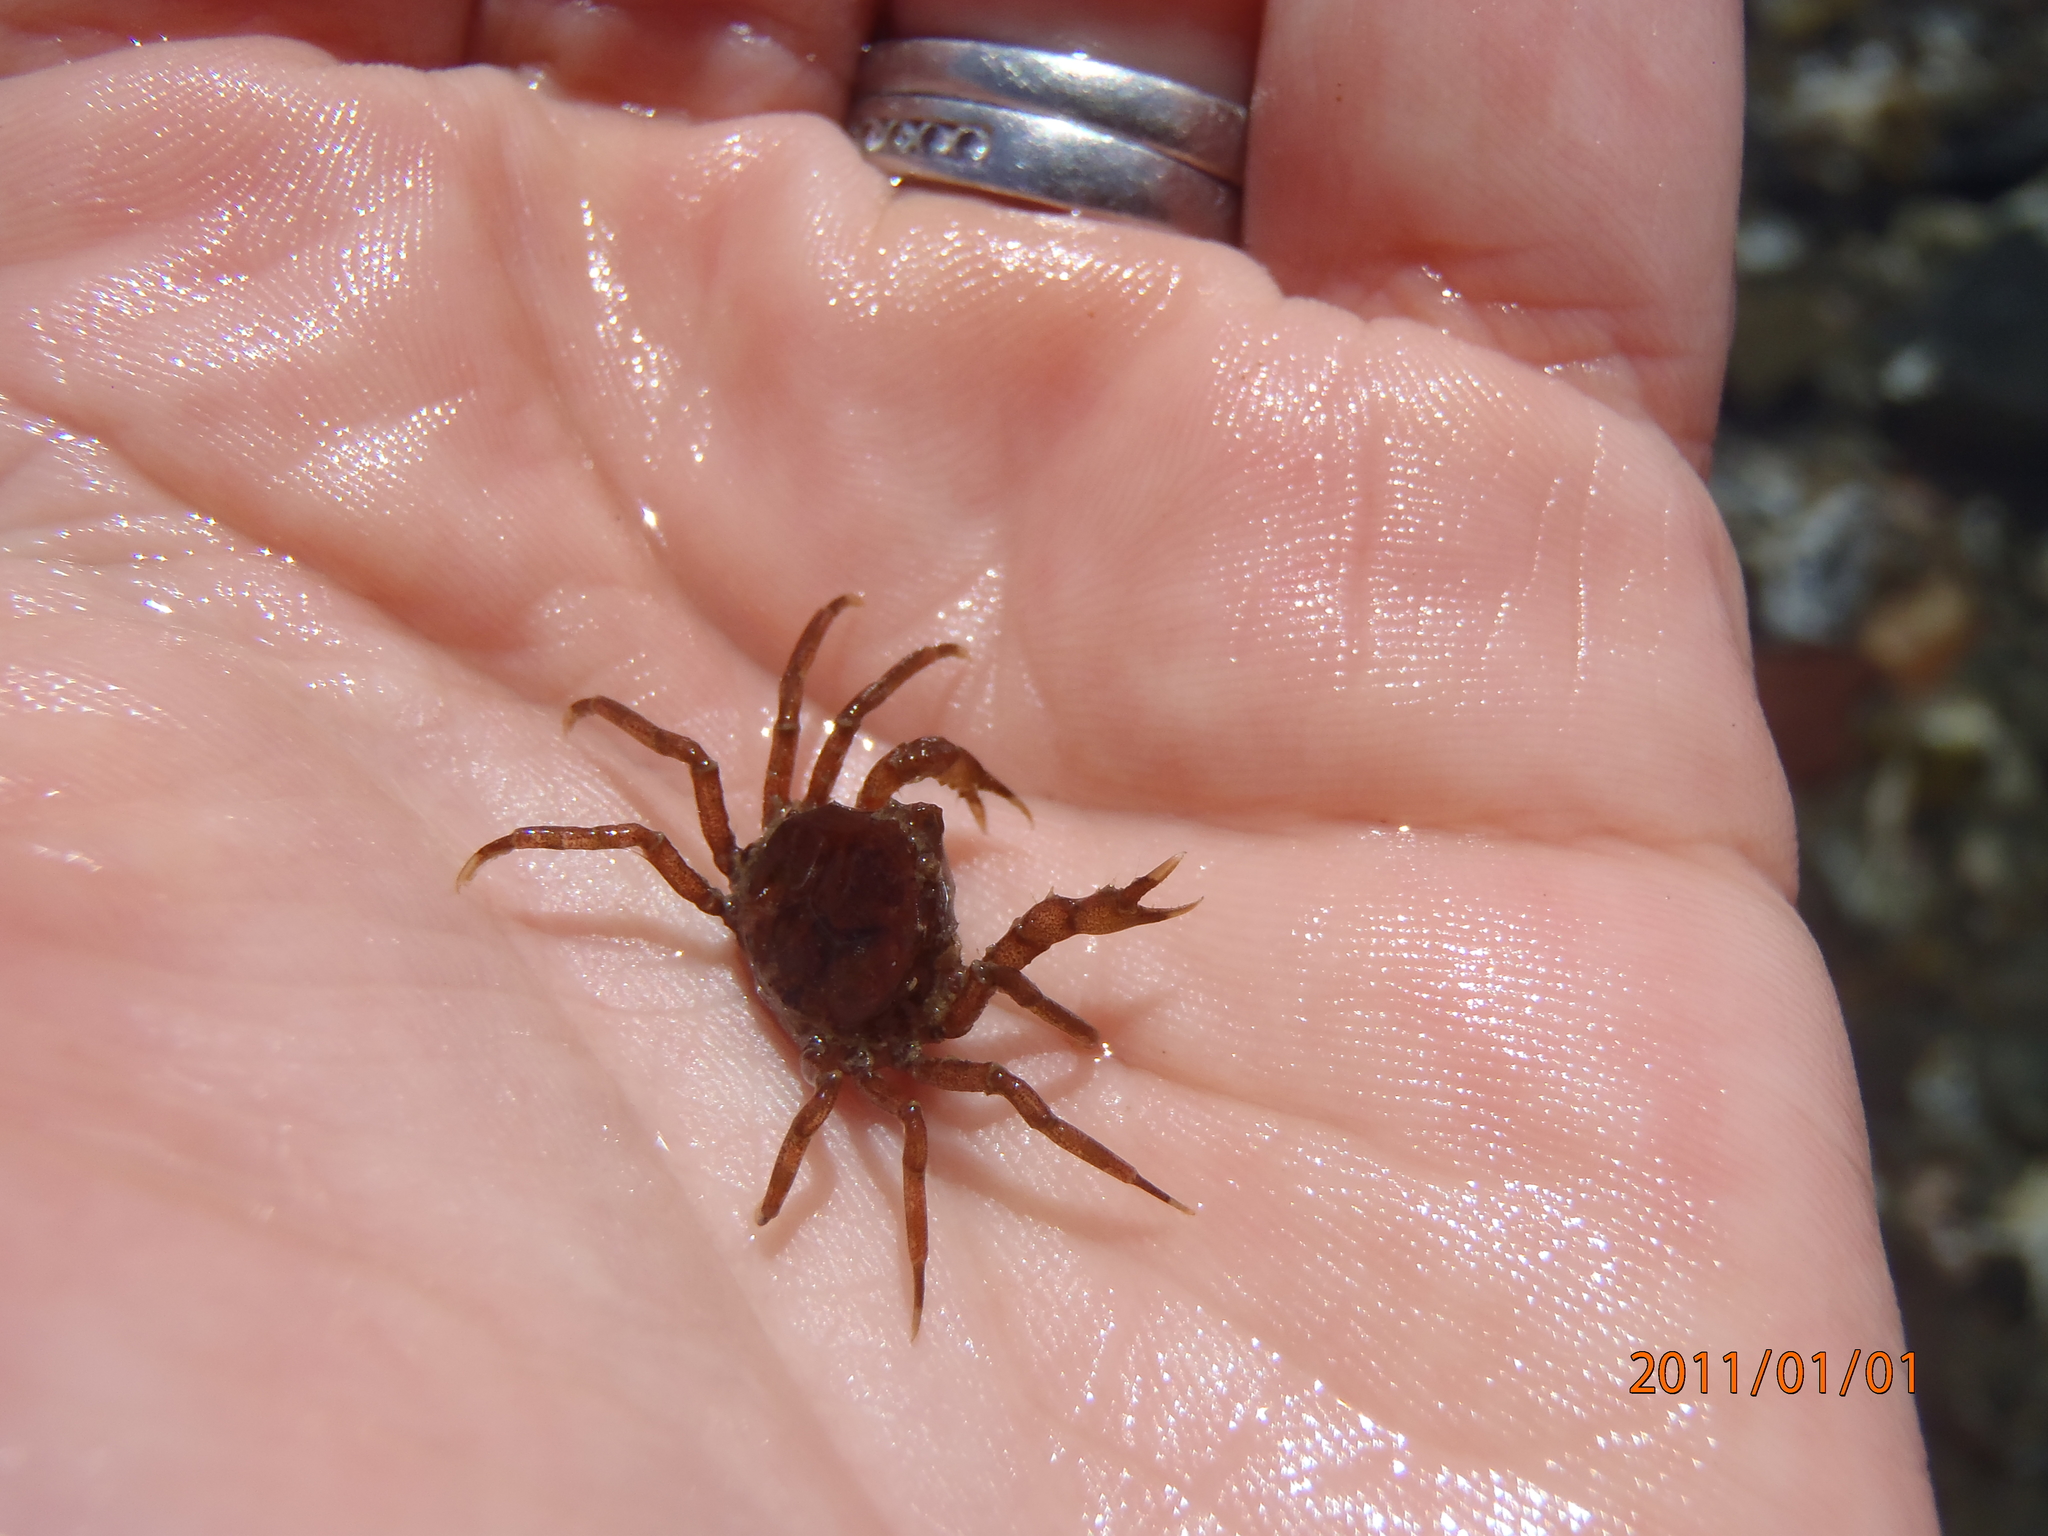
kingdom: Animalia
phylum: Arthropoda
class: Malacostraca
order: Decapoda
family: Hymenosomatidae
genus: Halicarcinus
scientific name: Halicarcinus cookii
